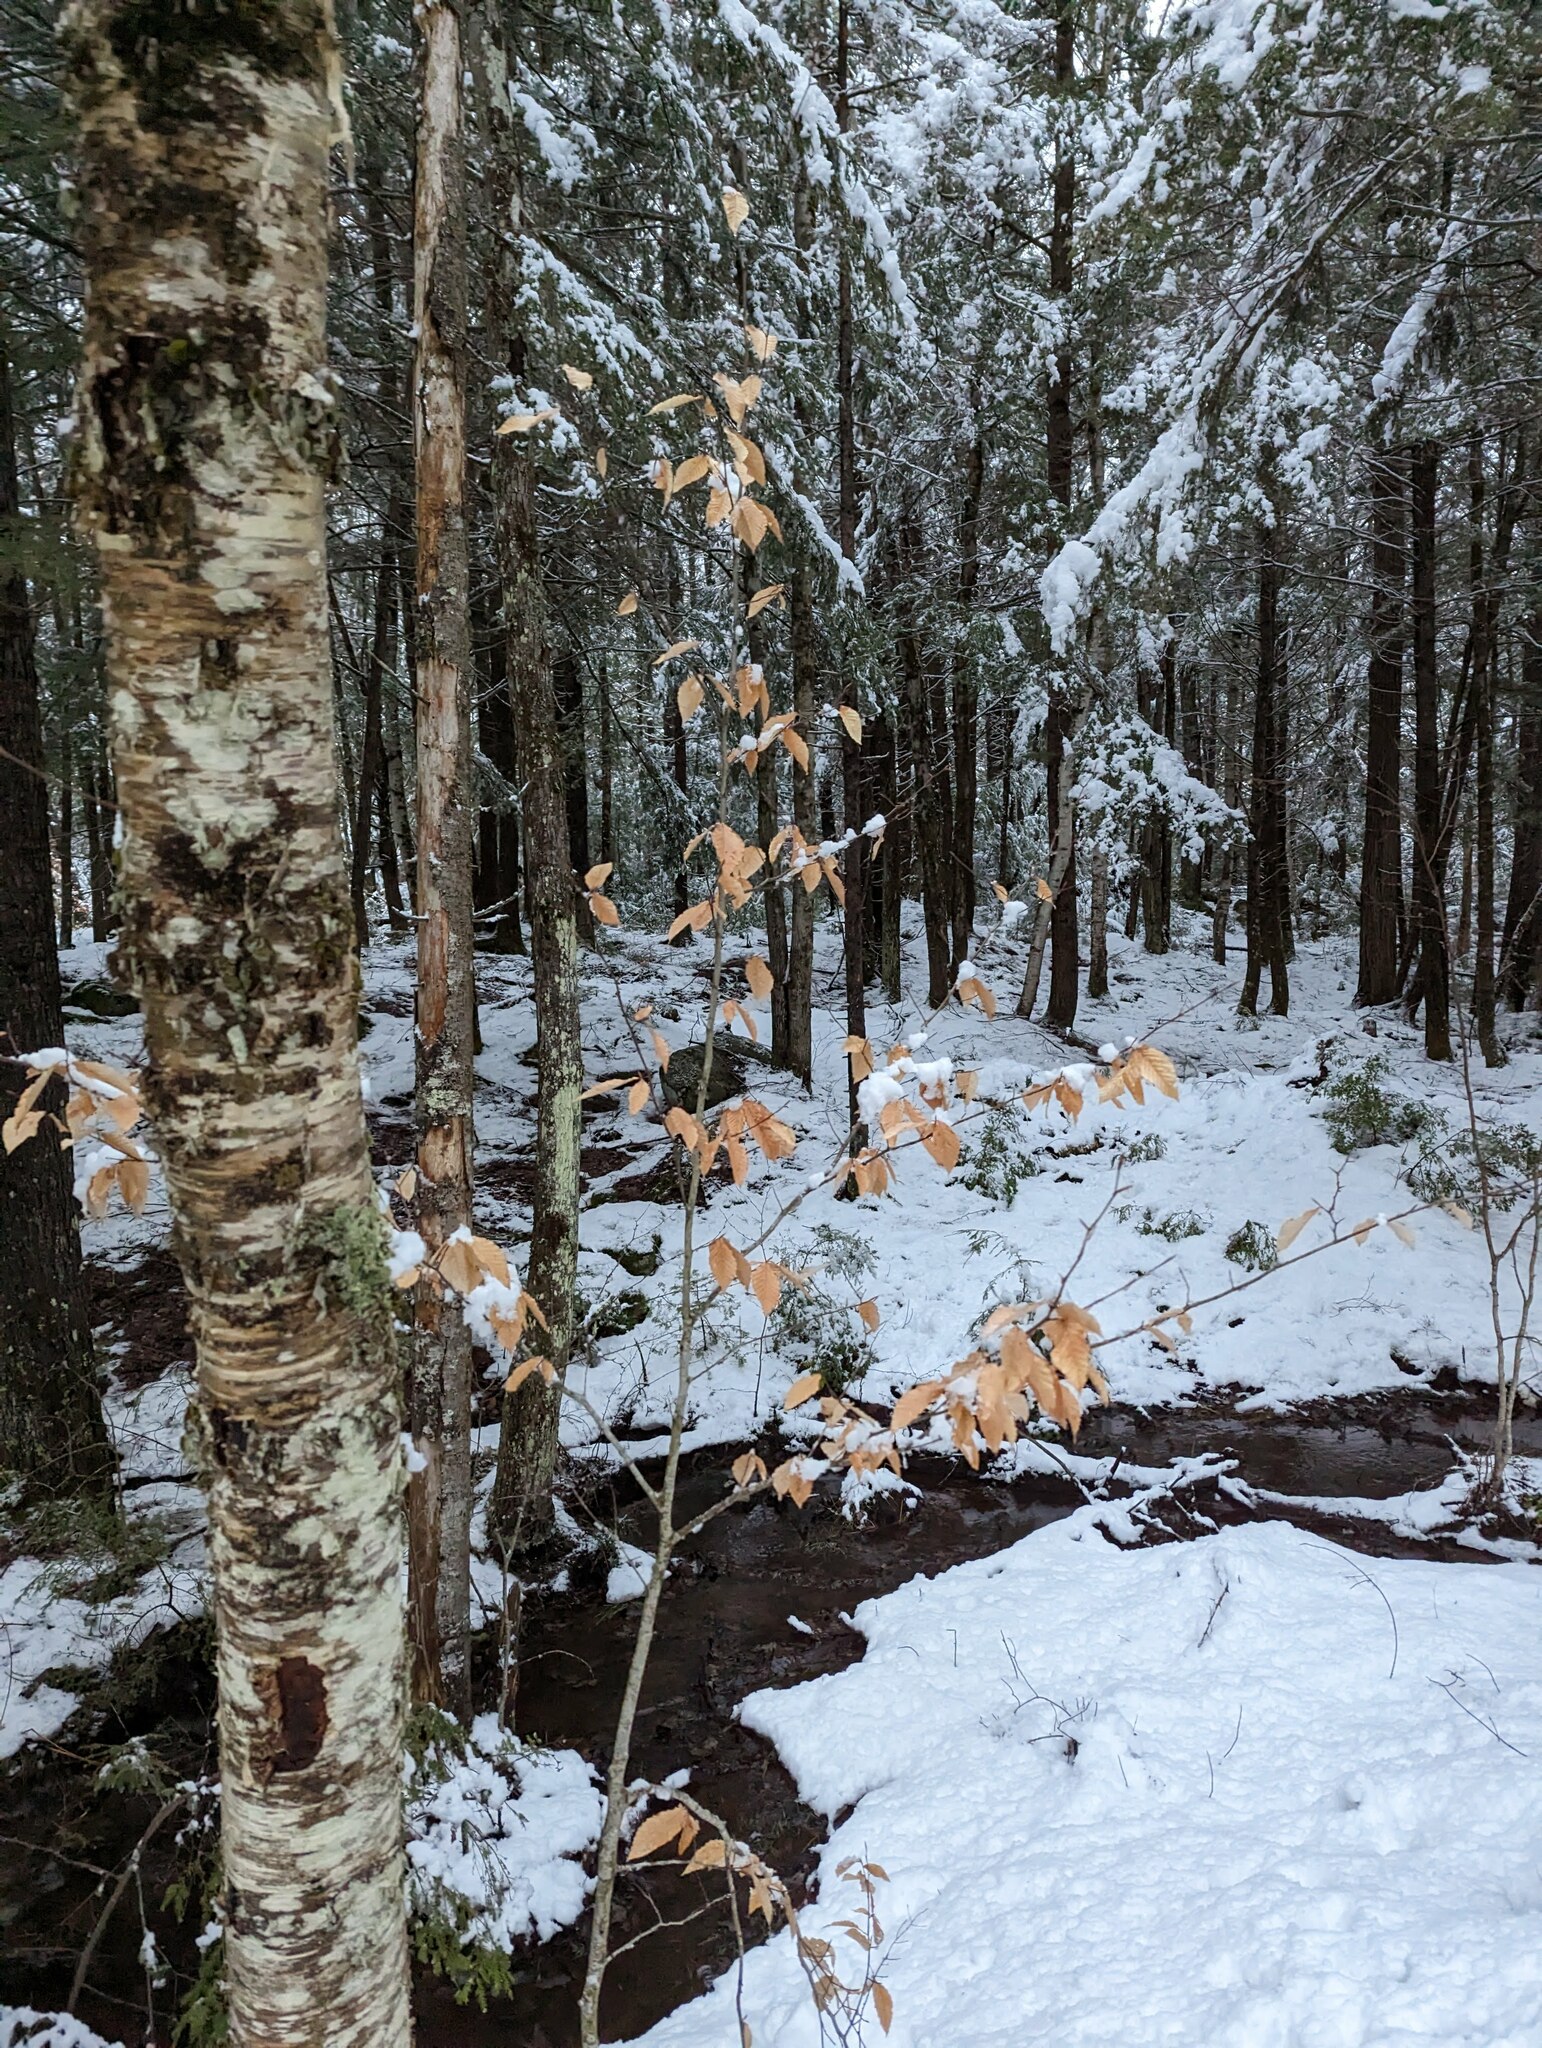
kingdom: Plantae
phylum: Tracheophyta
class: Magnoliopsida
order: Fagales
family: Fagaceae
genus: Fagus
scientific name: Fagus grandifolia
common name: American beech
